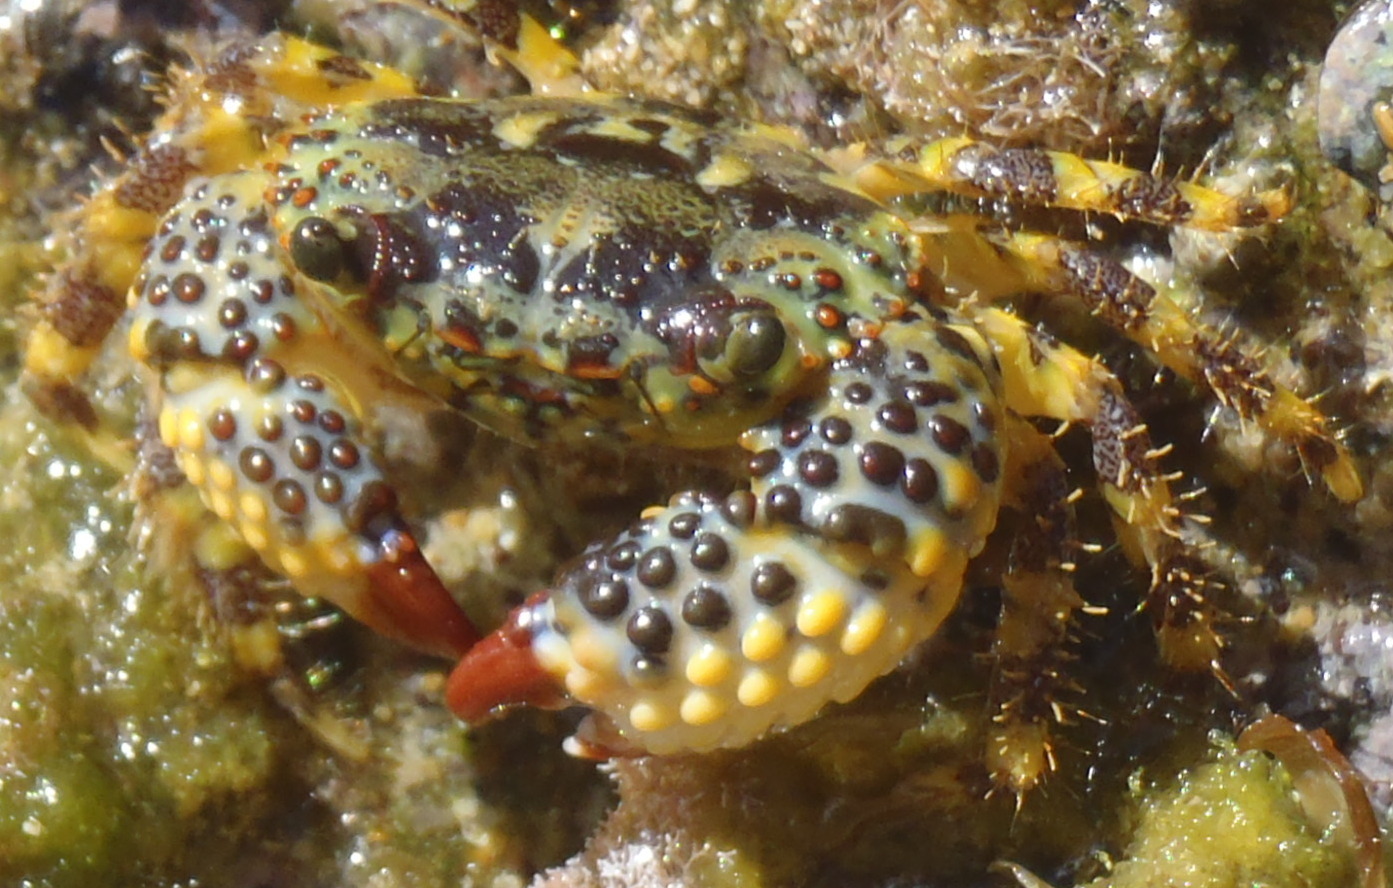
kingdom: Animalia
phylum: Arthropoda
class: Malacostraca
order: Decapoda
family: Eriphiidae
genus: Eriphia
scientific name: Eriphia gonagra
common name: Calico crab
